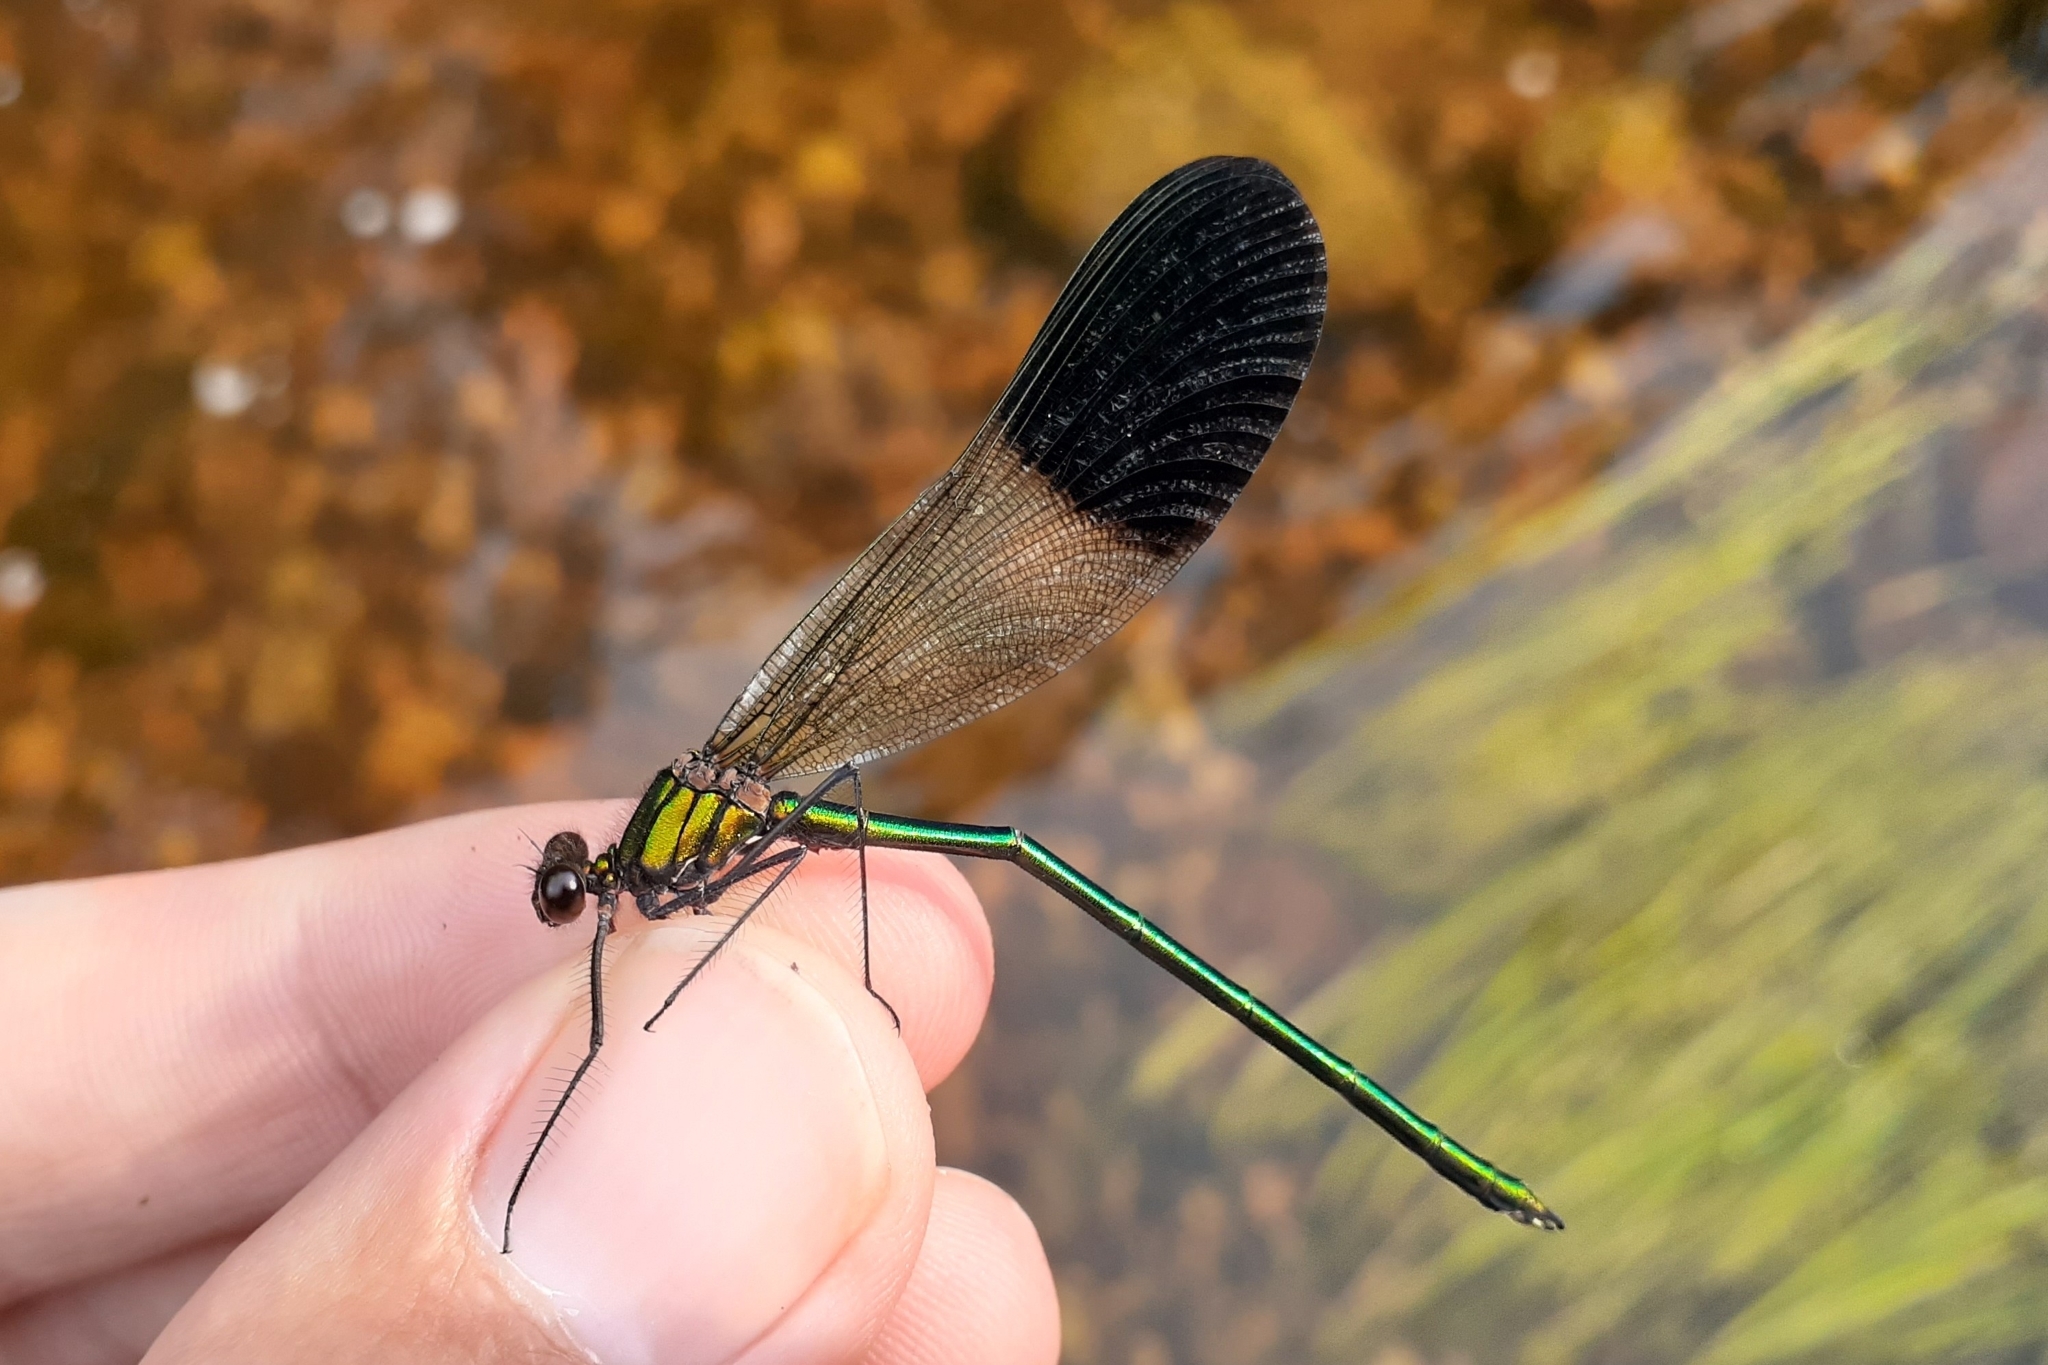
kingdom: Animalia
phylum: Arthropoda
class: Insecta
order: Odonata
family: Calopterygidae
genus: Calopteryx
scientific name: Calopteryx aequabilis
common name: River jewelwing
